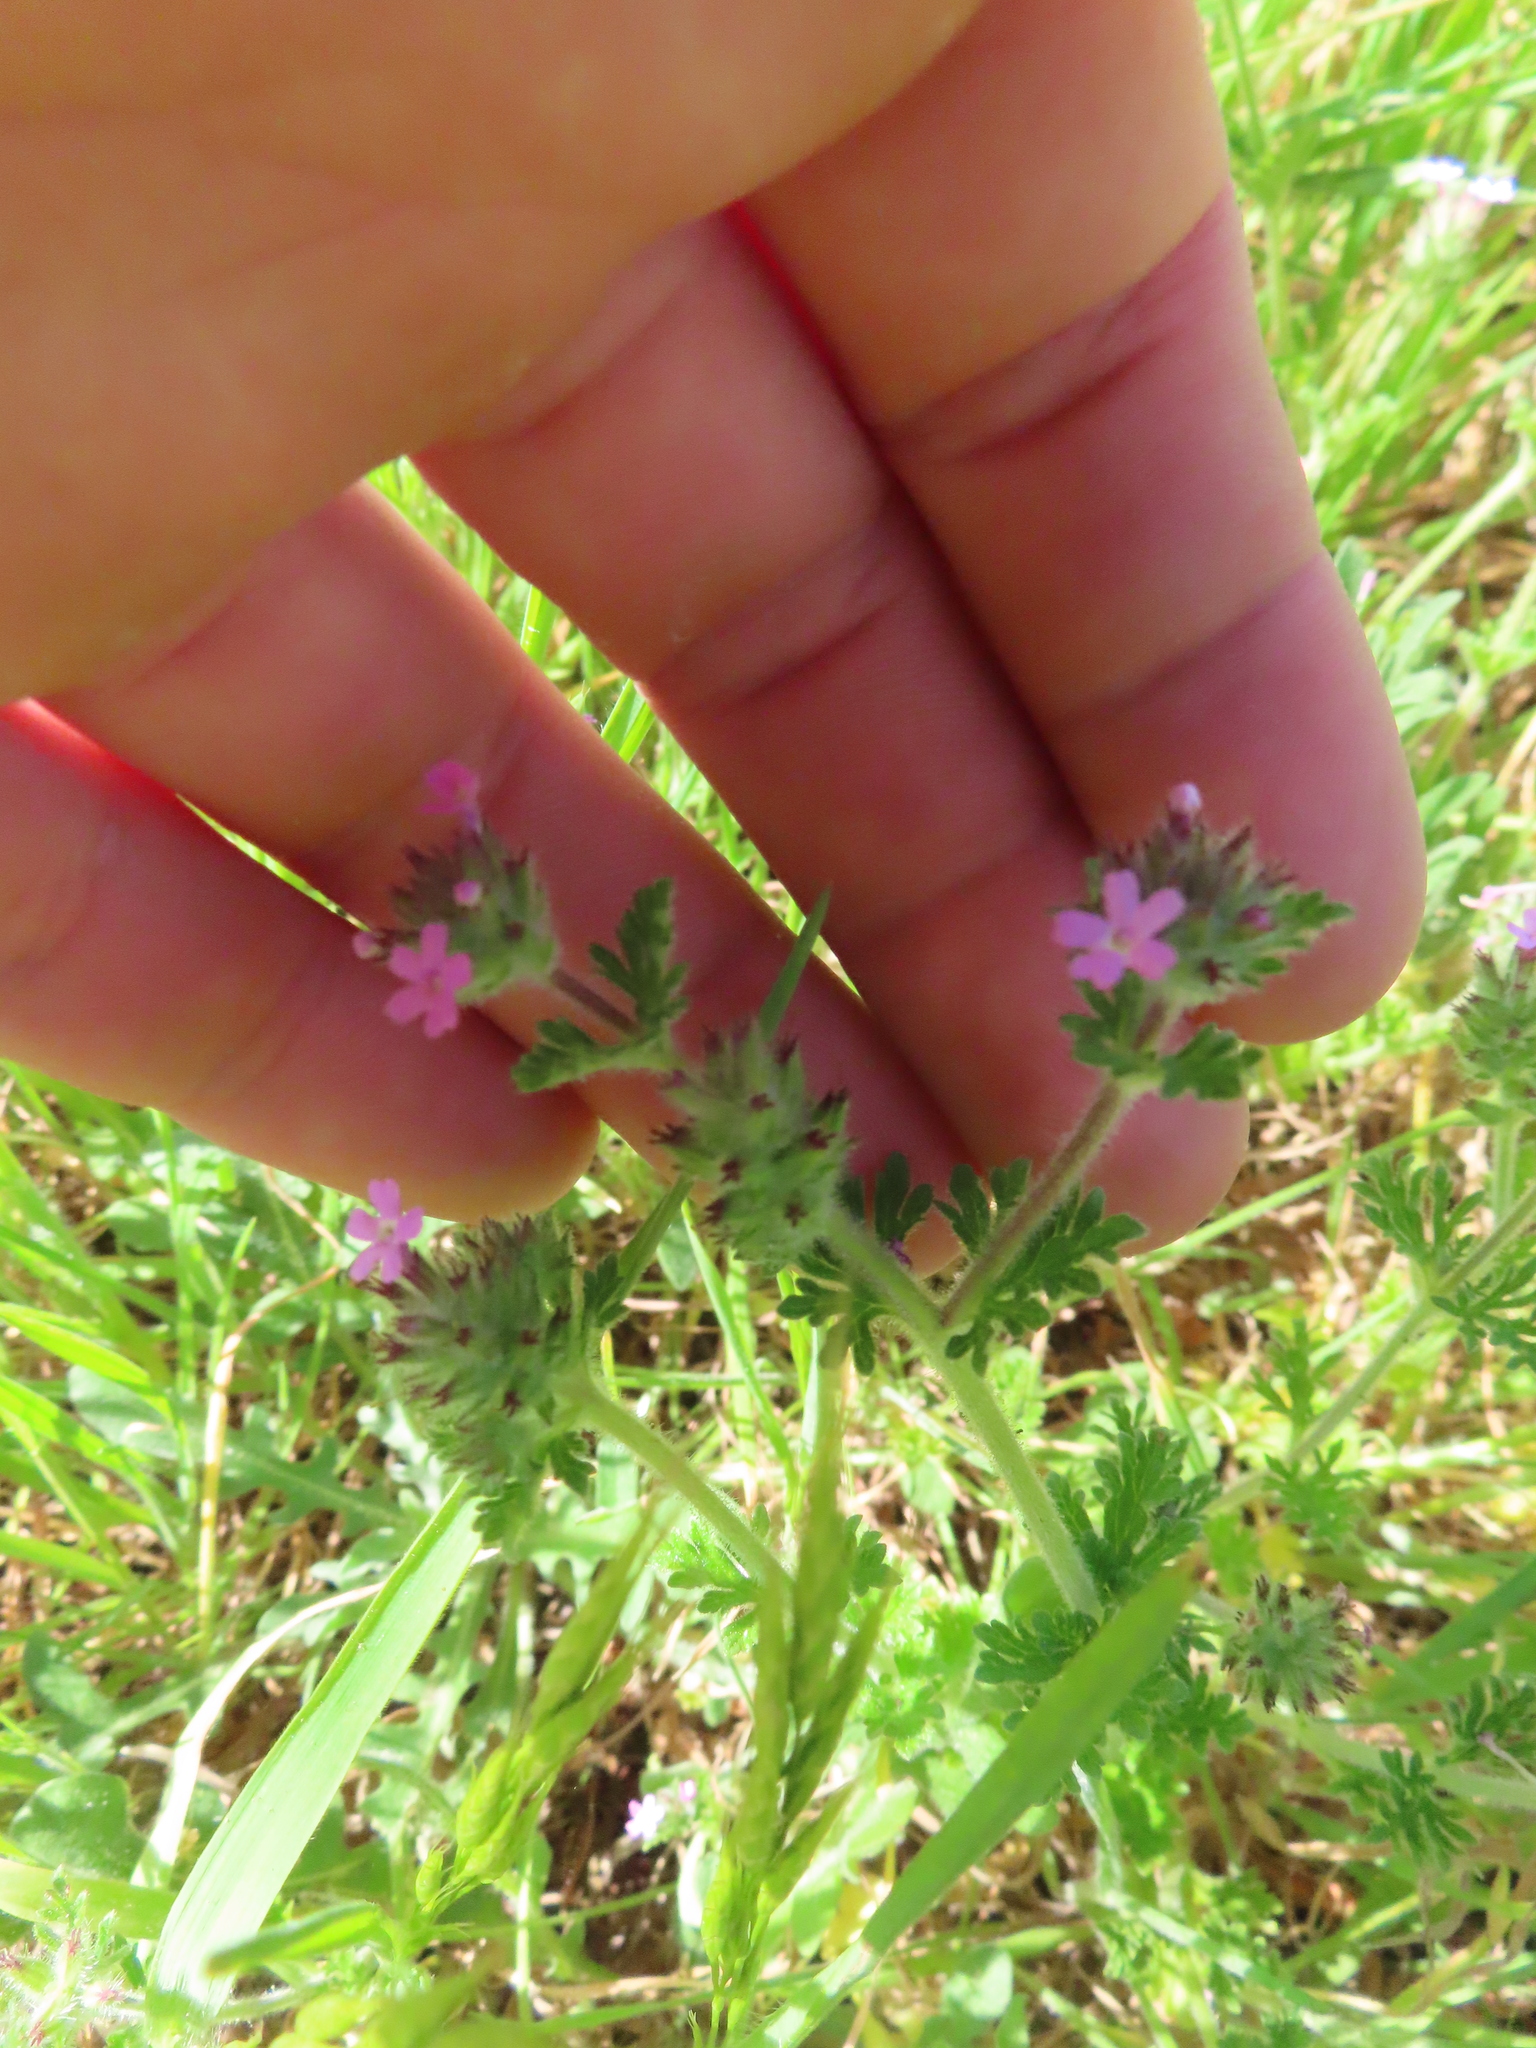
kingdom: Plantae
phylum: Tracheophyta
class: Magnoliopsida
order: Lamiales
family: Verbenaceae
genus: Verbena
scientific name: Verbena pumila
